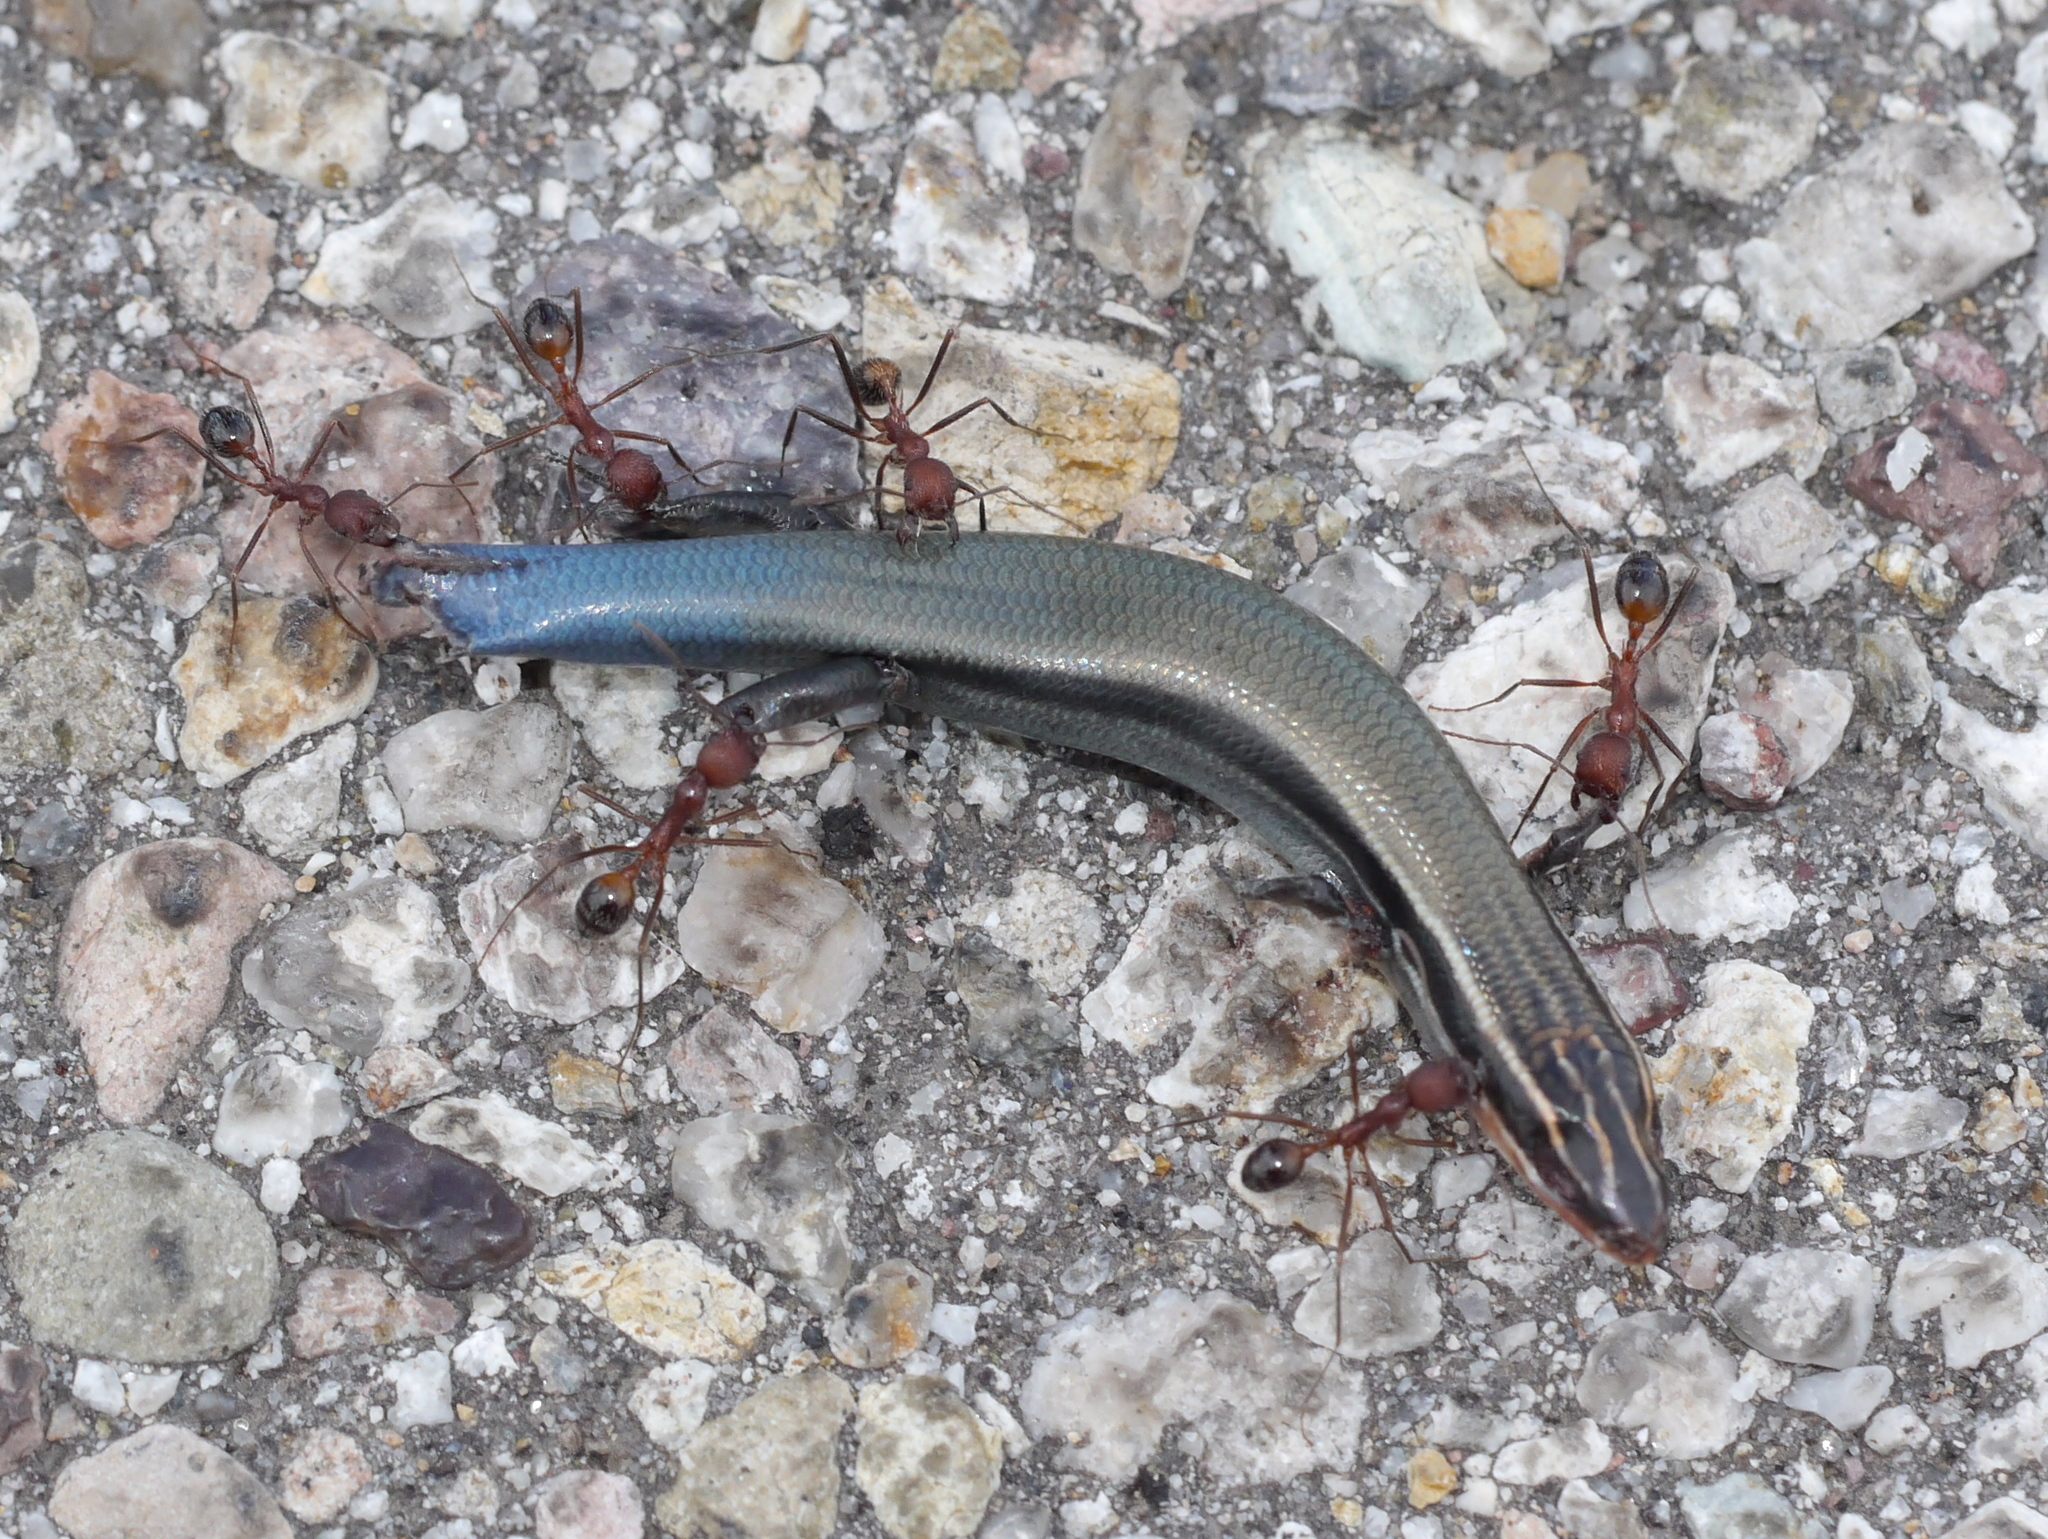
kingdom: Animalia
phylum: Chordata
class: Squamata
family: Scincidae
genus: Plestiodon
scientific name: Plestiodon callicephalus
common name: Mountain skink
